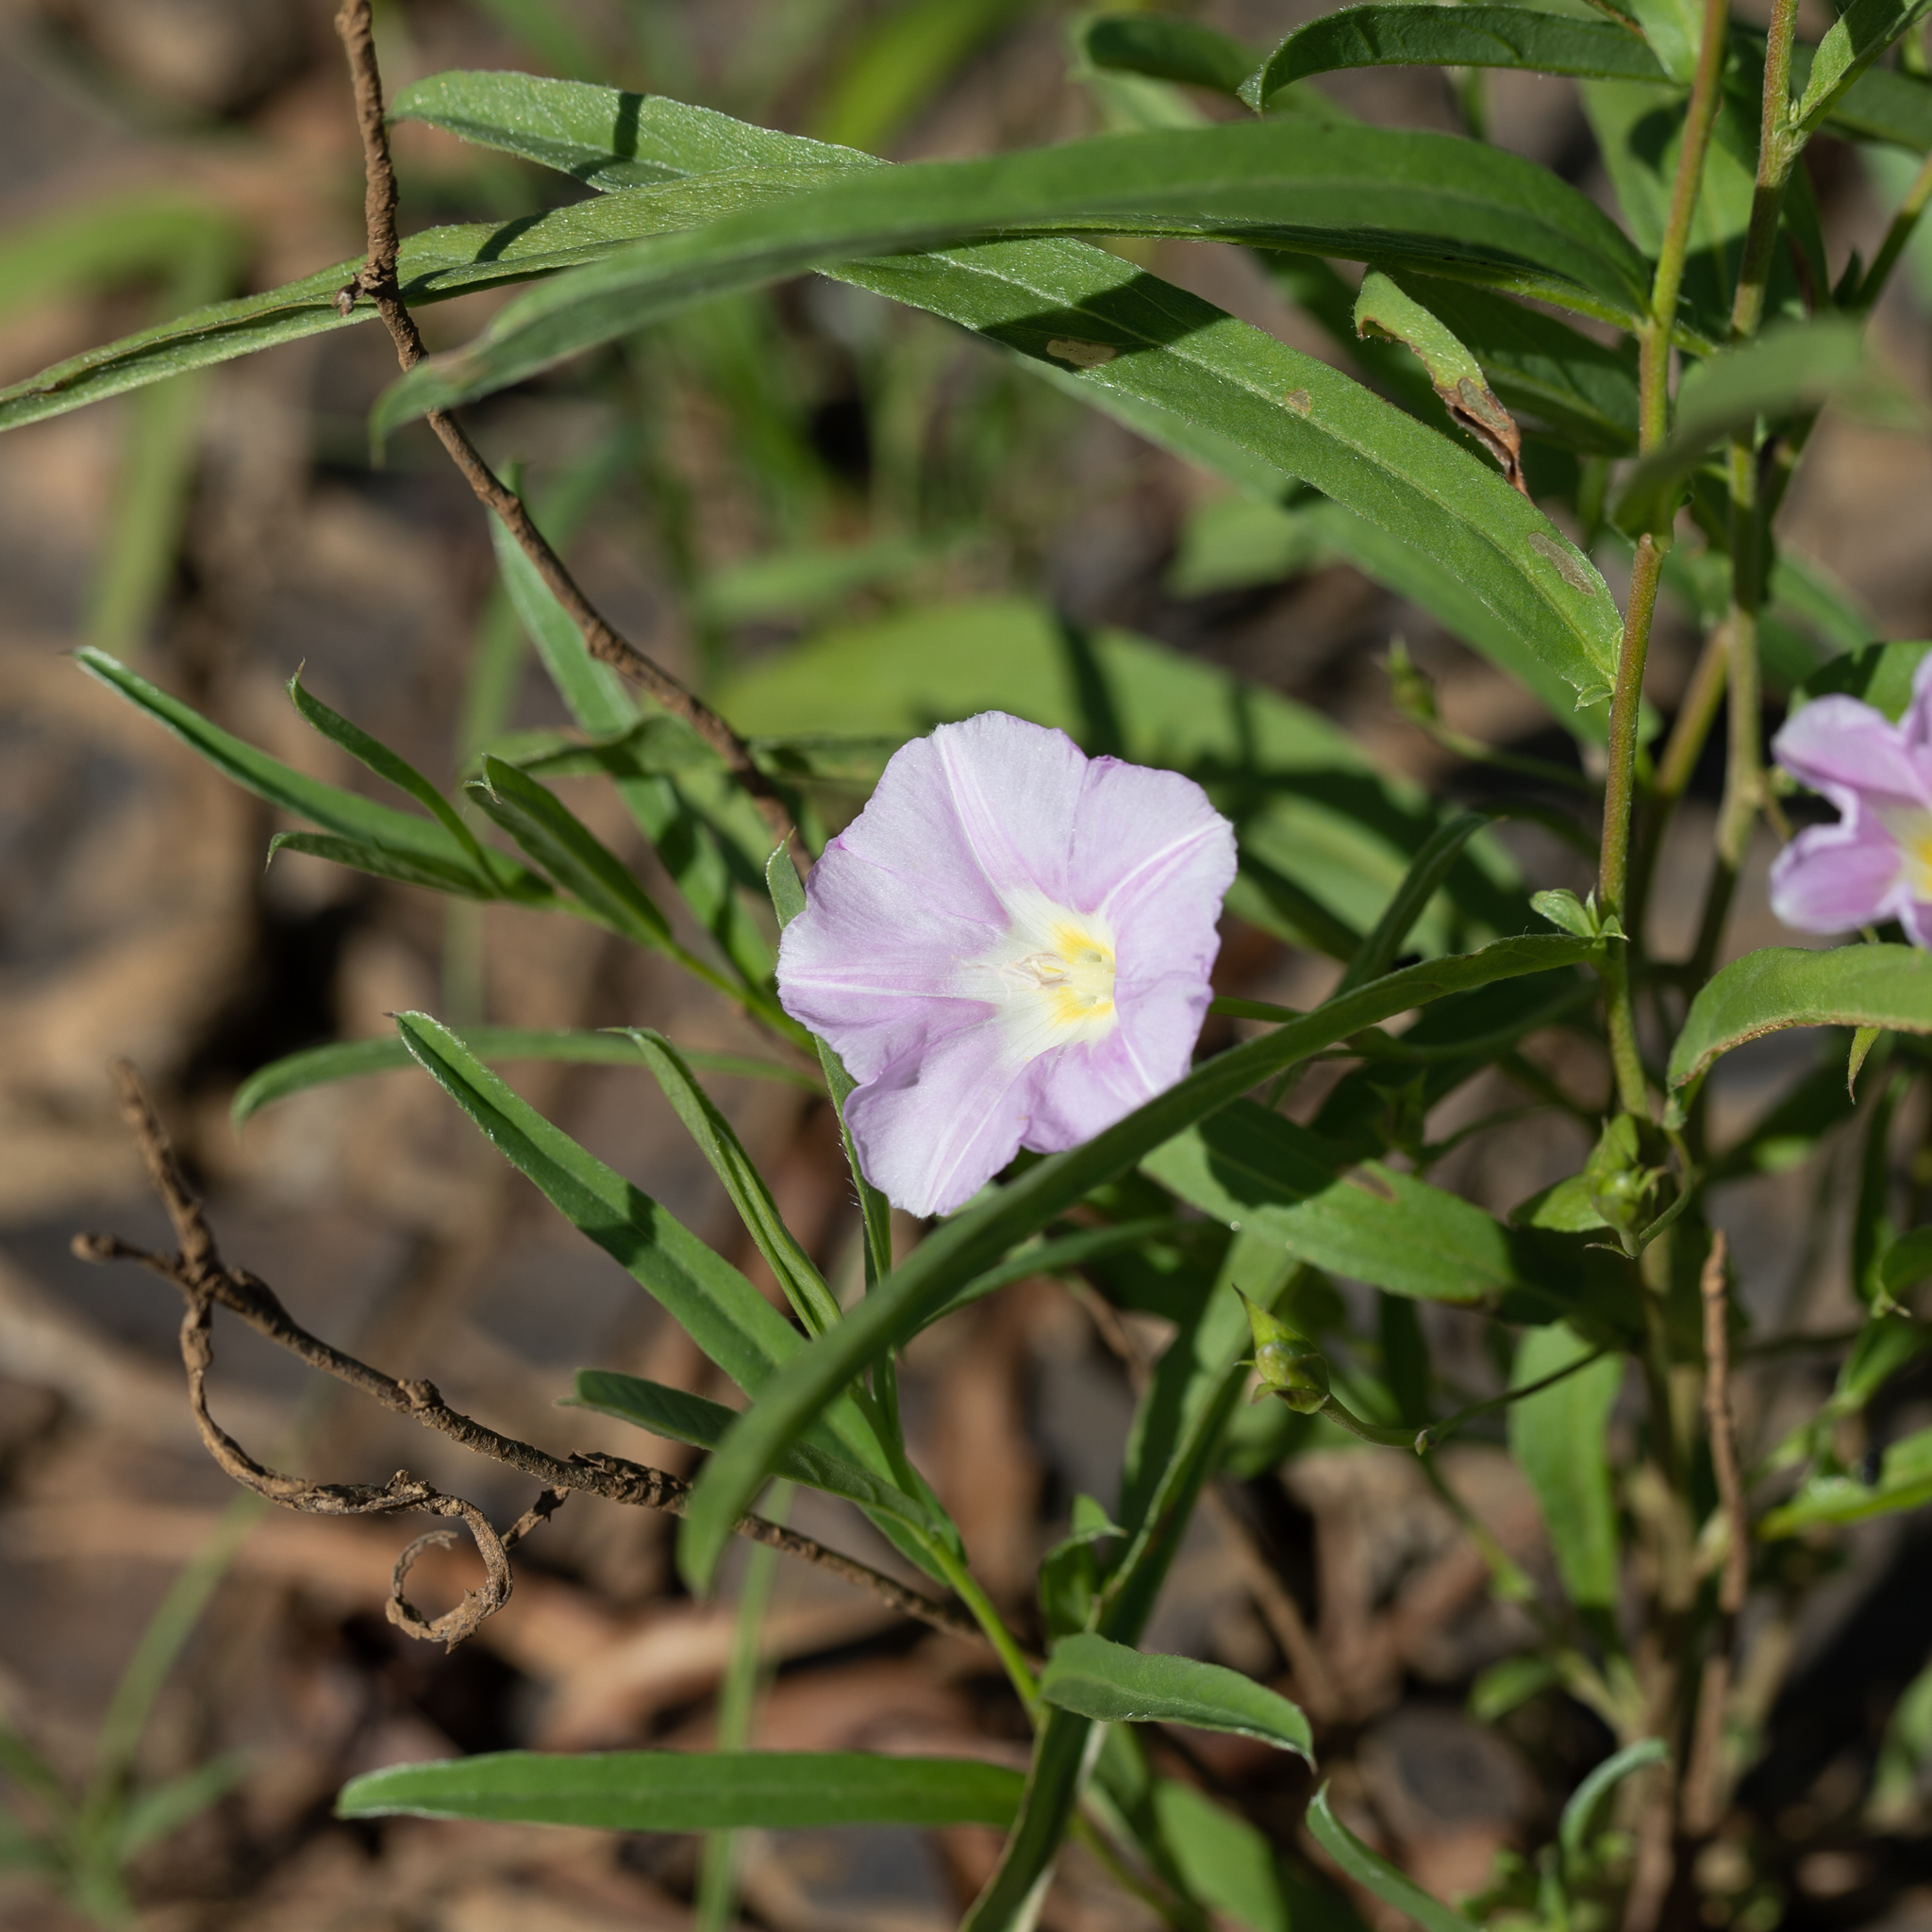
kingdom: Plantae
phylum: Tracheophyta
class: Magnoliopsida
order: Solanales
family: Convolvulaceae
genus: Polymeria
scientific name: Polymeria longifolia
